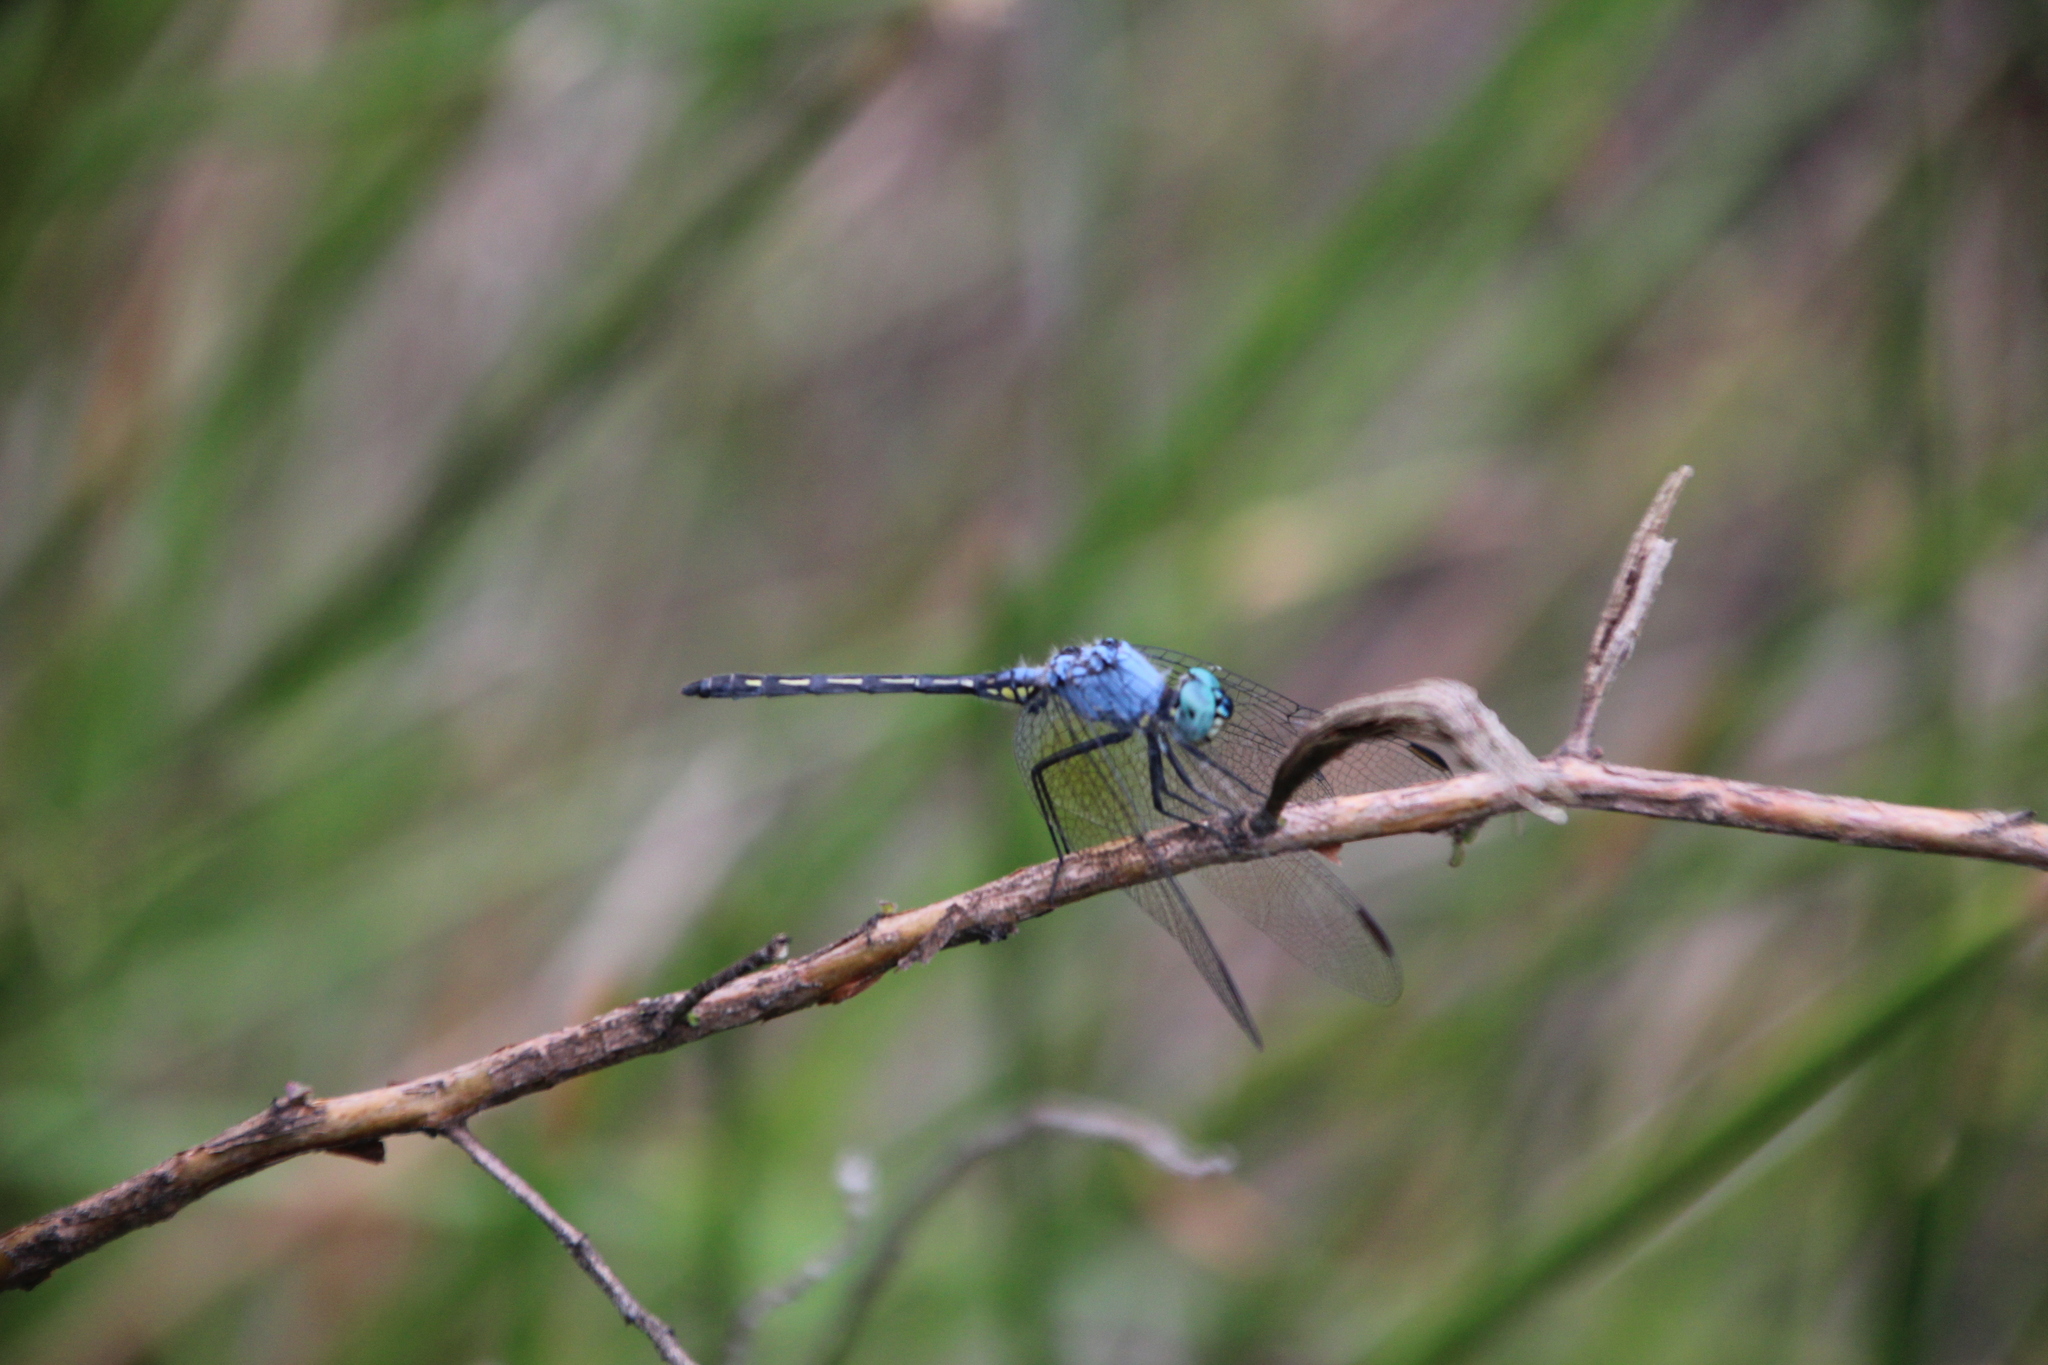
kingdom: Animalia
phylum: Arthropoda
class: Insecta
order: Odonata
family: Libellulidae
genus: Trithemis
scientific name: Trithemis stictica
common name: Jaunty dropwing
